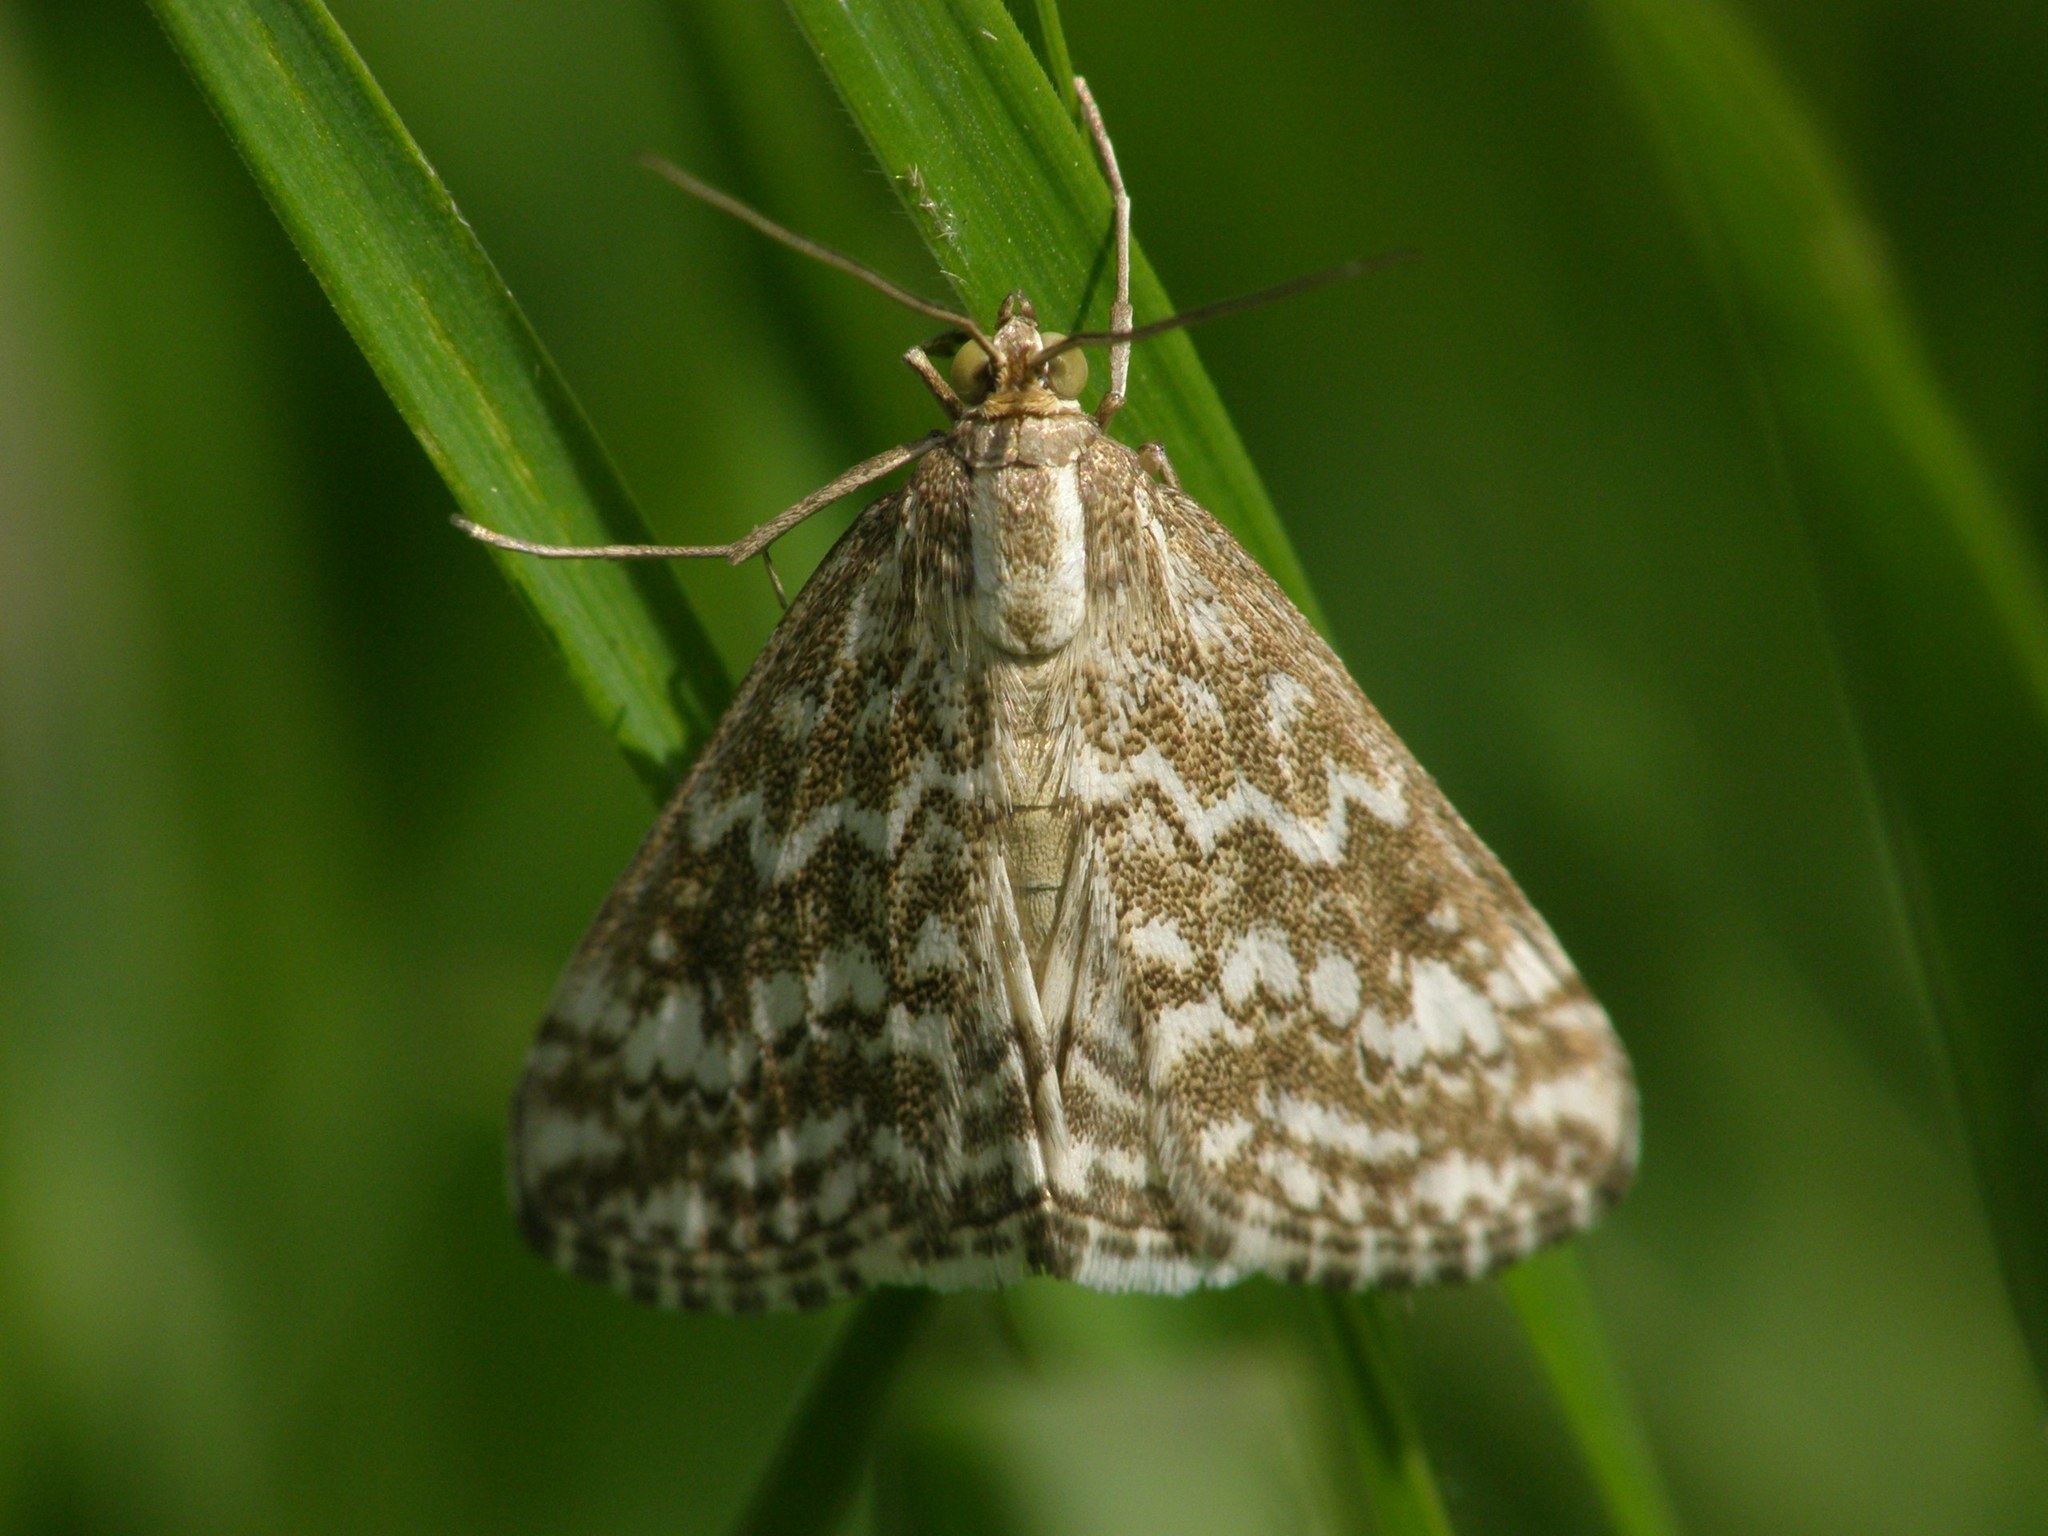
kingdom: Animalia
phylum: Arthropoda
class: Insecta
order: Lepidoptera
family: Crambidae
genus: Evergestis
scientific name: Evergestis frumentalis
